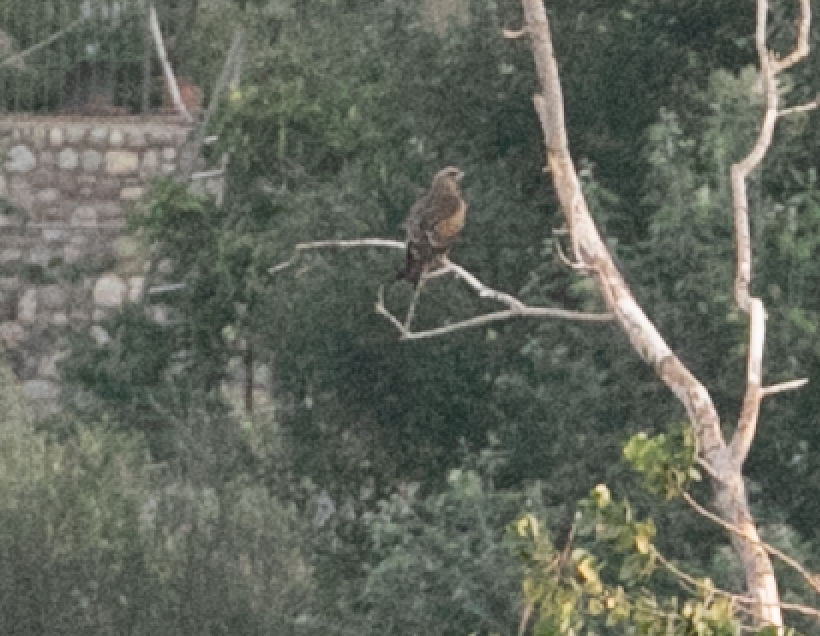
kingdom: Animalia
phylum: Chordata
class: Aves
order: Accipitriformes
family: Accipitridae
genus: Milvus
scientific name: Milvus migrans
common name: Black kite
